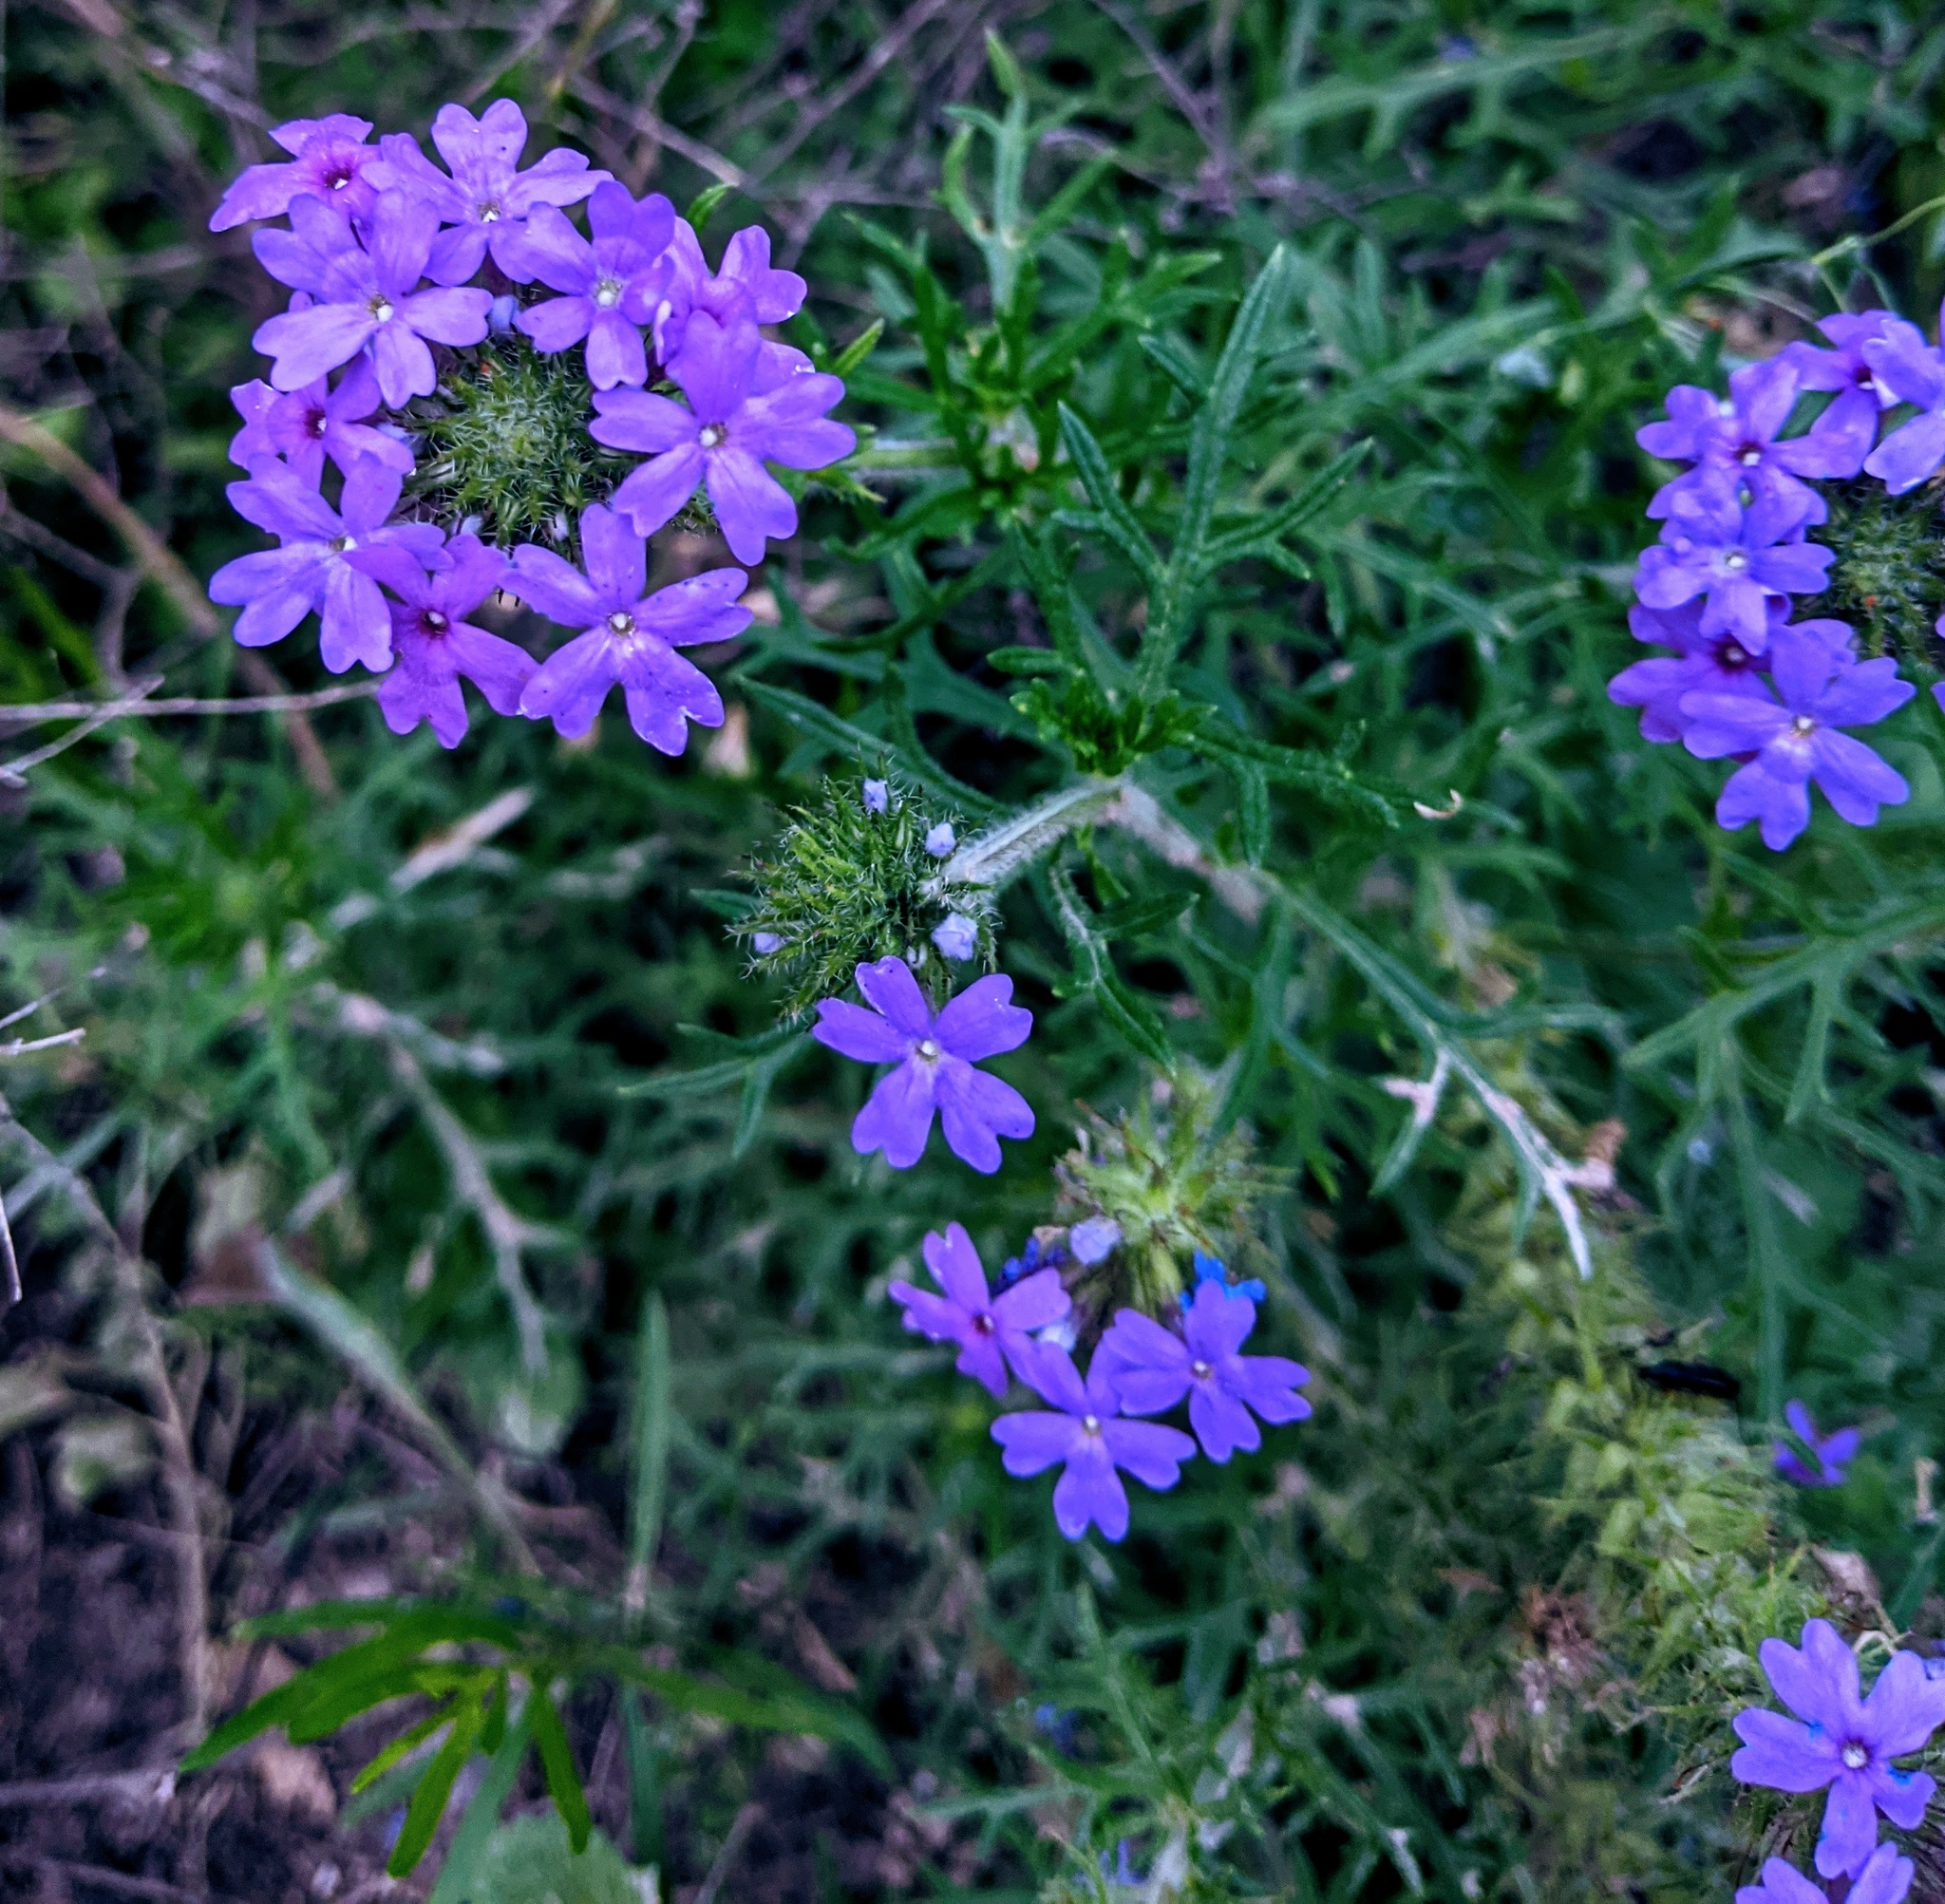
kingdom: Plantae
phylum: Tracheophyta
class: Magnoliopsida
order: Lamiales
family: Verbenaceae
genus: Verbena
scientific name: Verbena bipinnatifida
